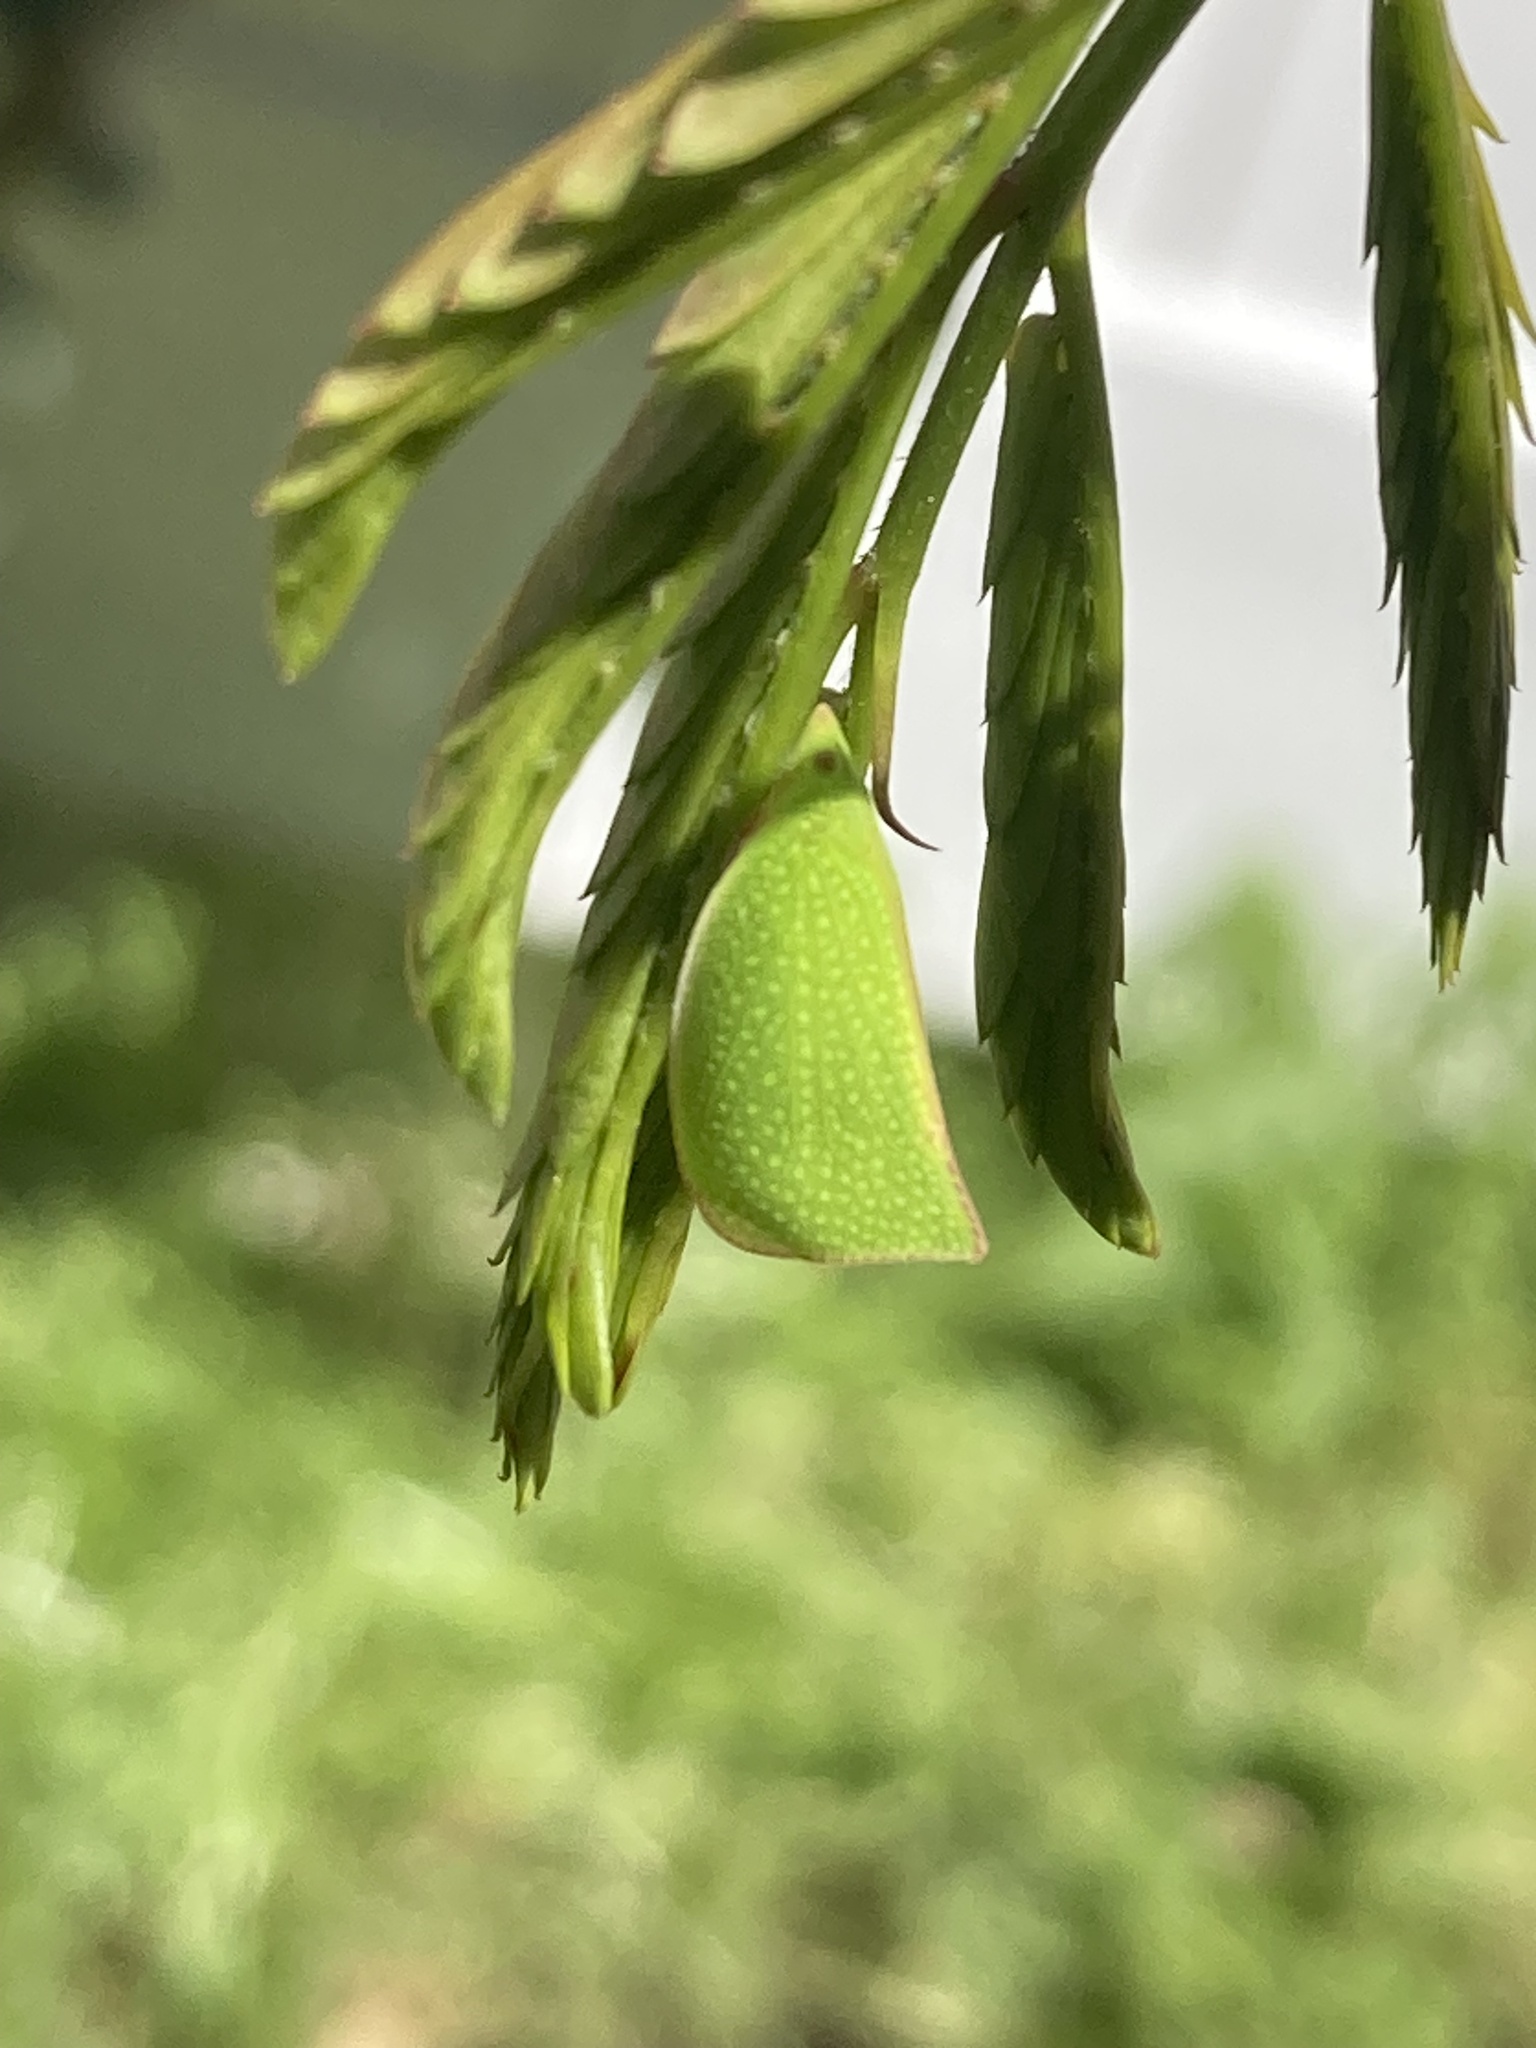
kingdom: Animalia
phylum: Arthropoda
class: Insecta
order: Hemiptera
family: Flatidae
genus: Siphanta
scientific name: Siphanta acuta
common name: Torpedo bug
